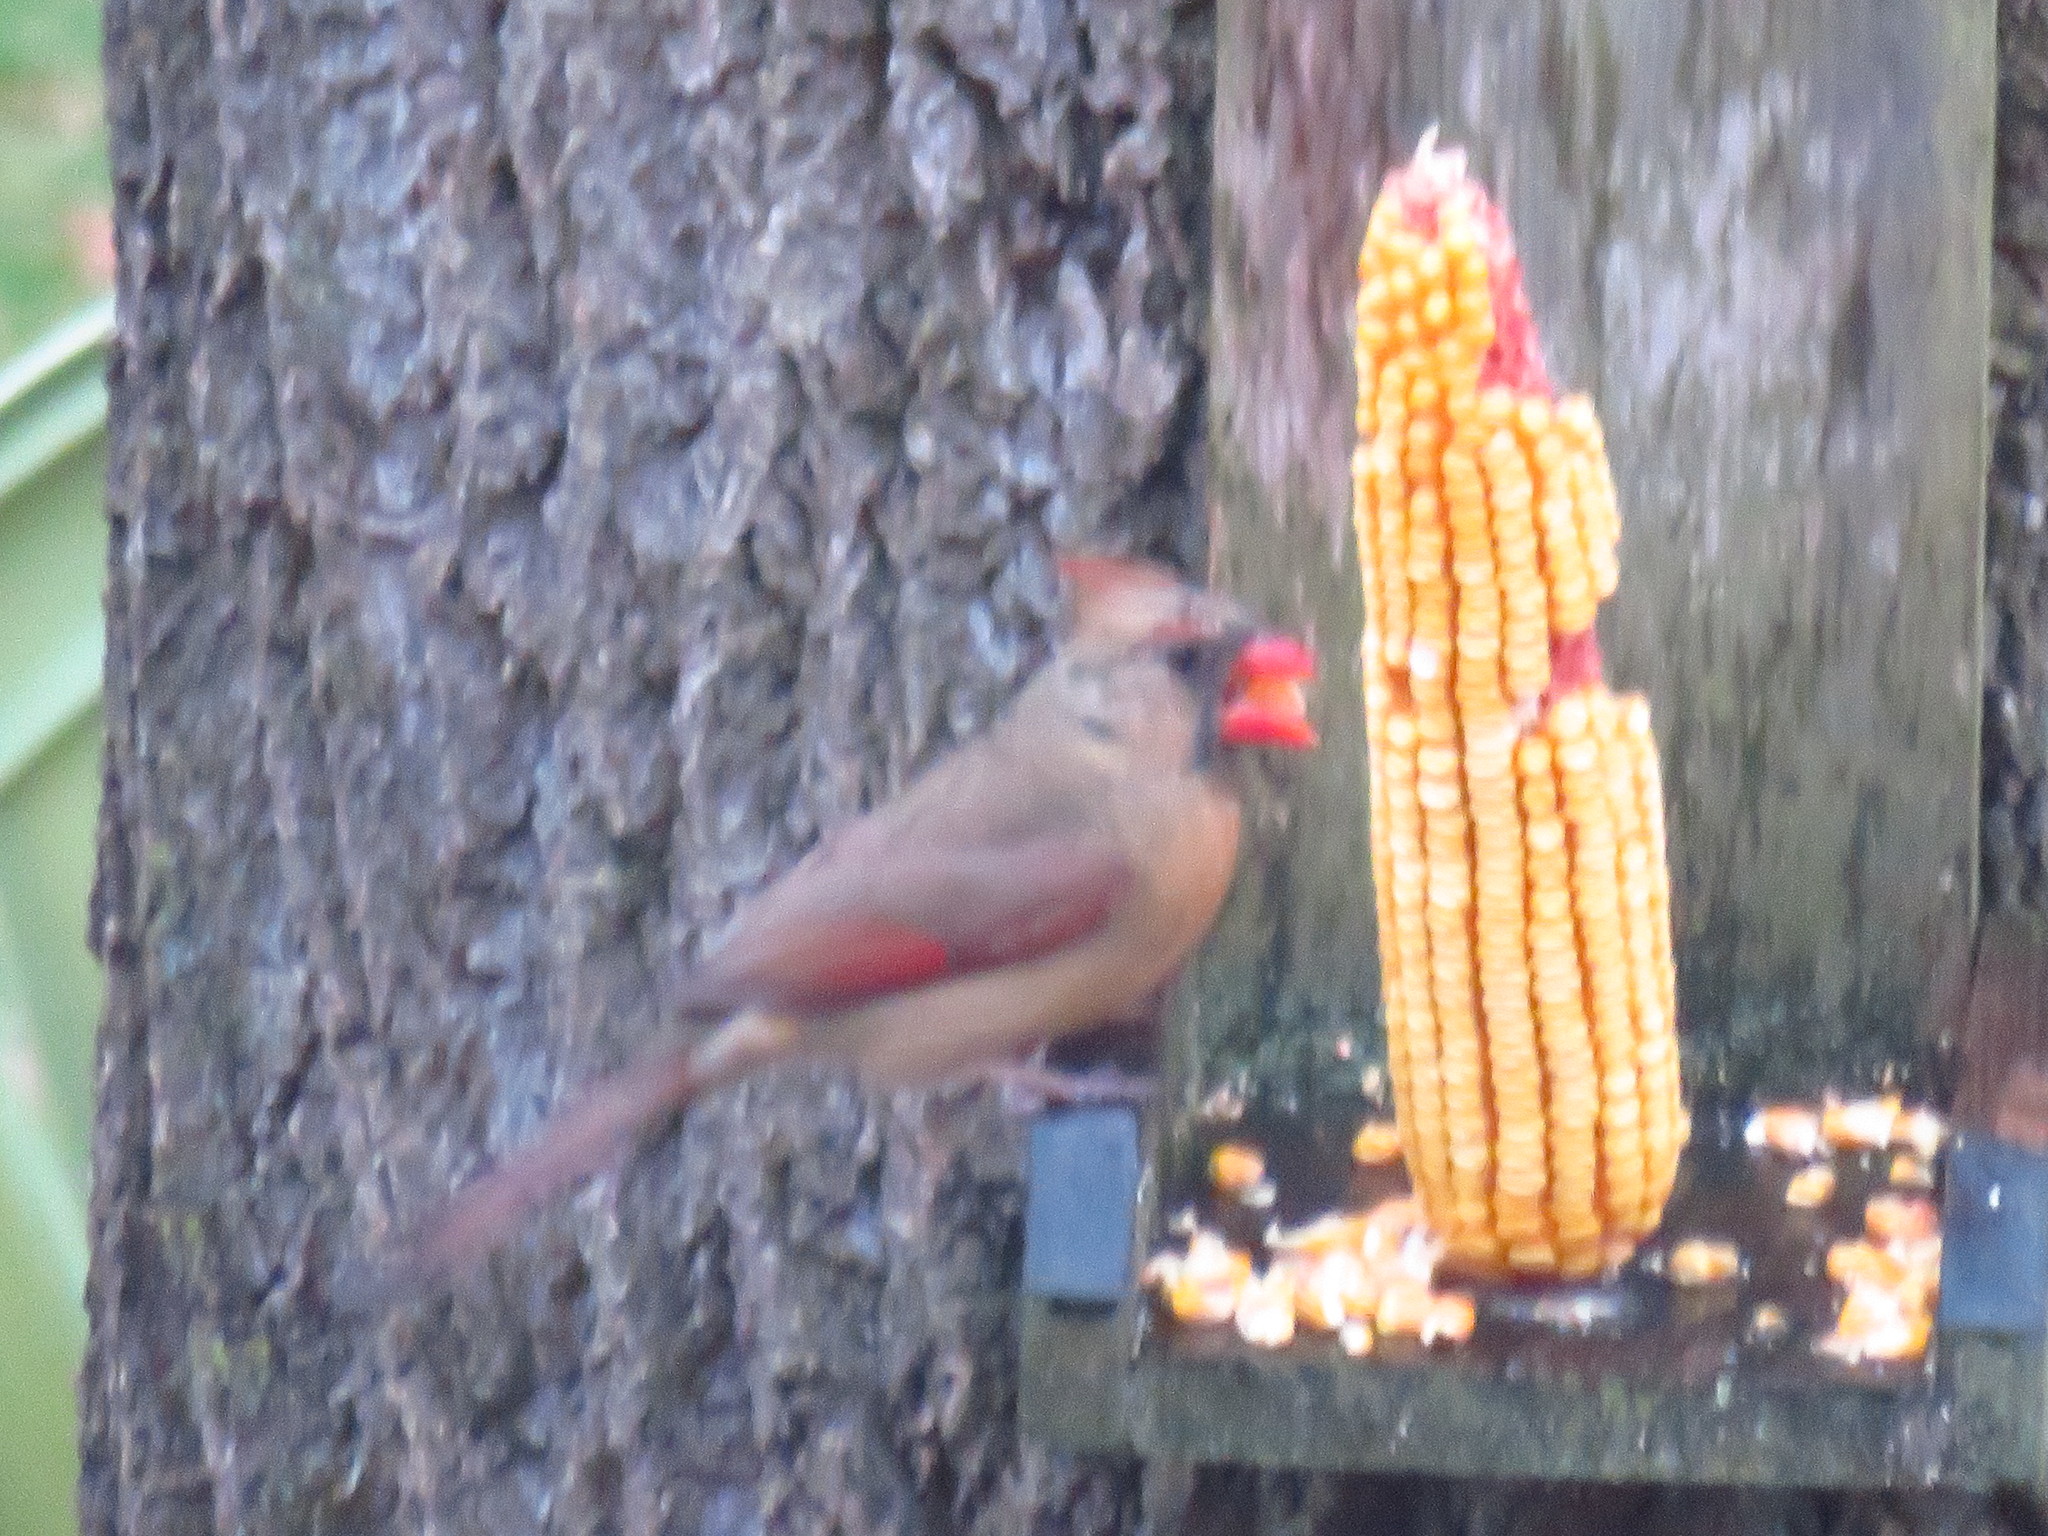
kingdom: Animalia
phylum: Chordata
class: Aves
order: Passeriformes
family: Cardinalidae
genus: Cardinalis
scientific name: Cardinalis cardinalis
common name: Northern cardinal
